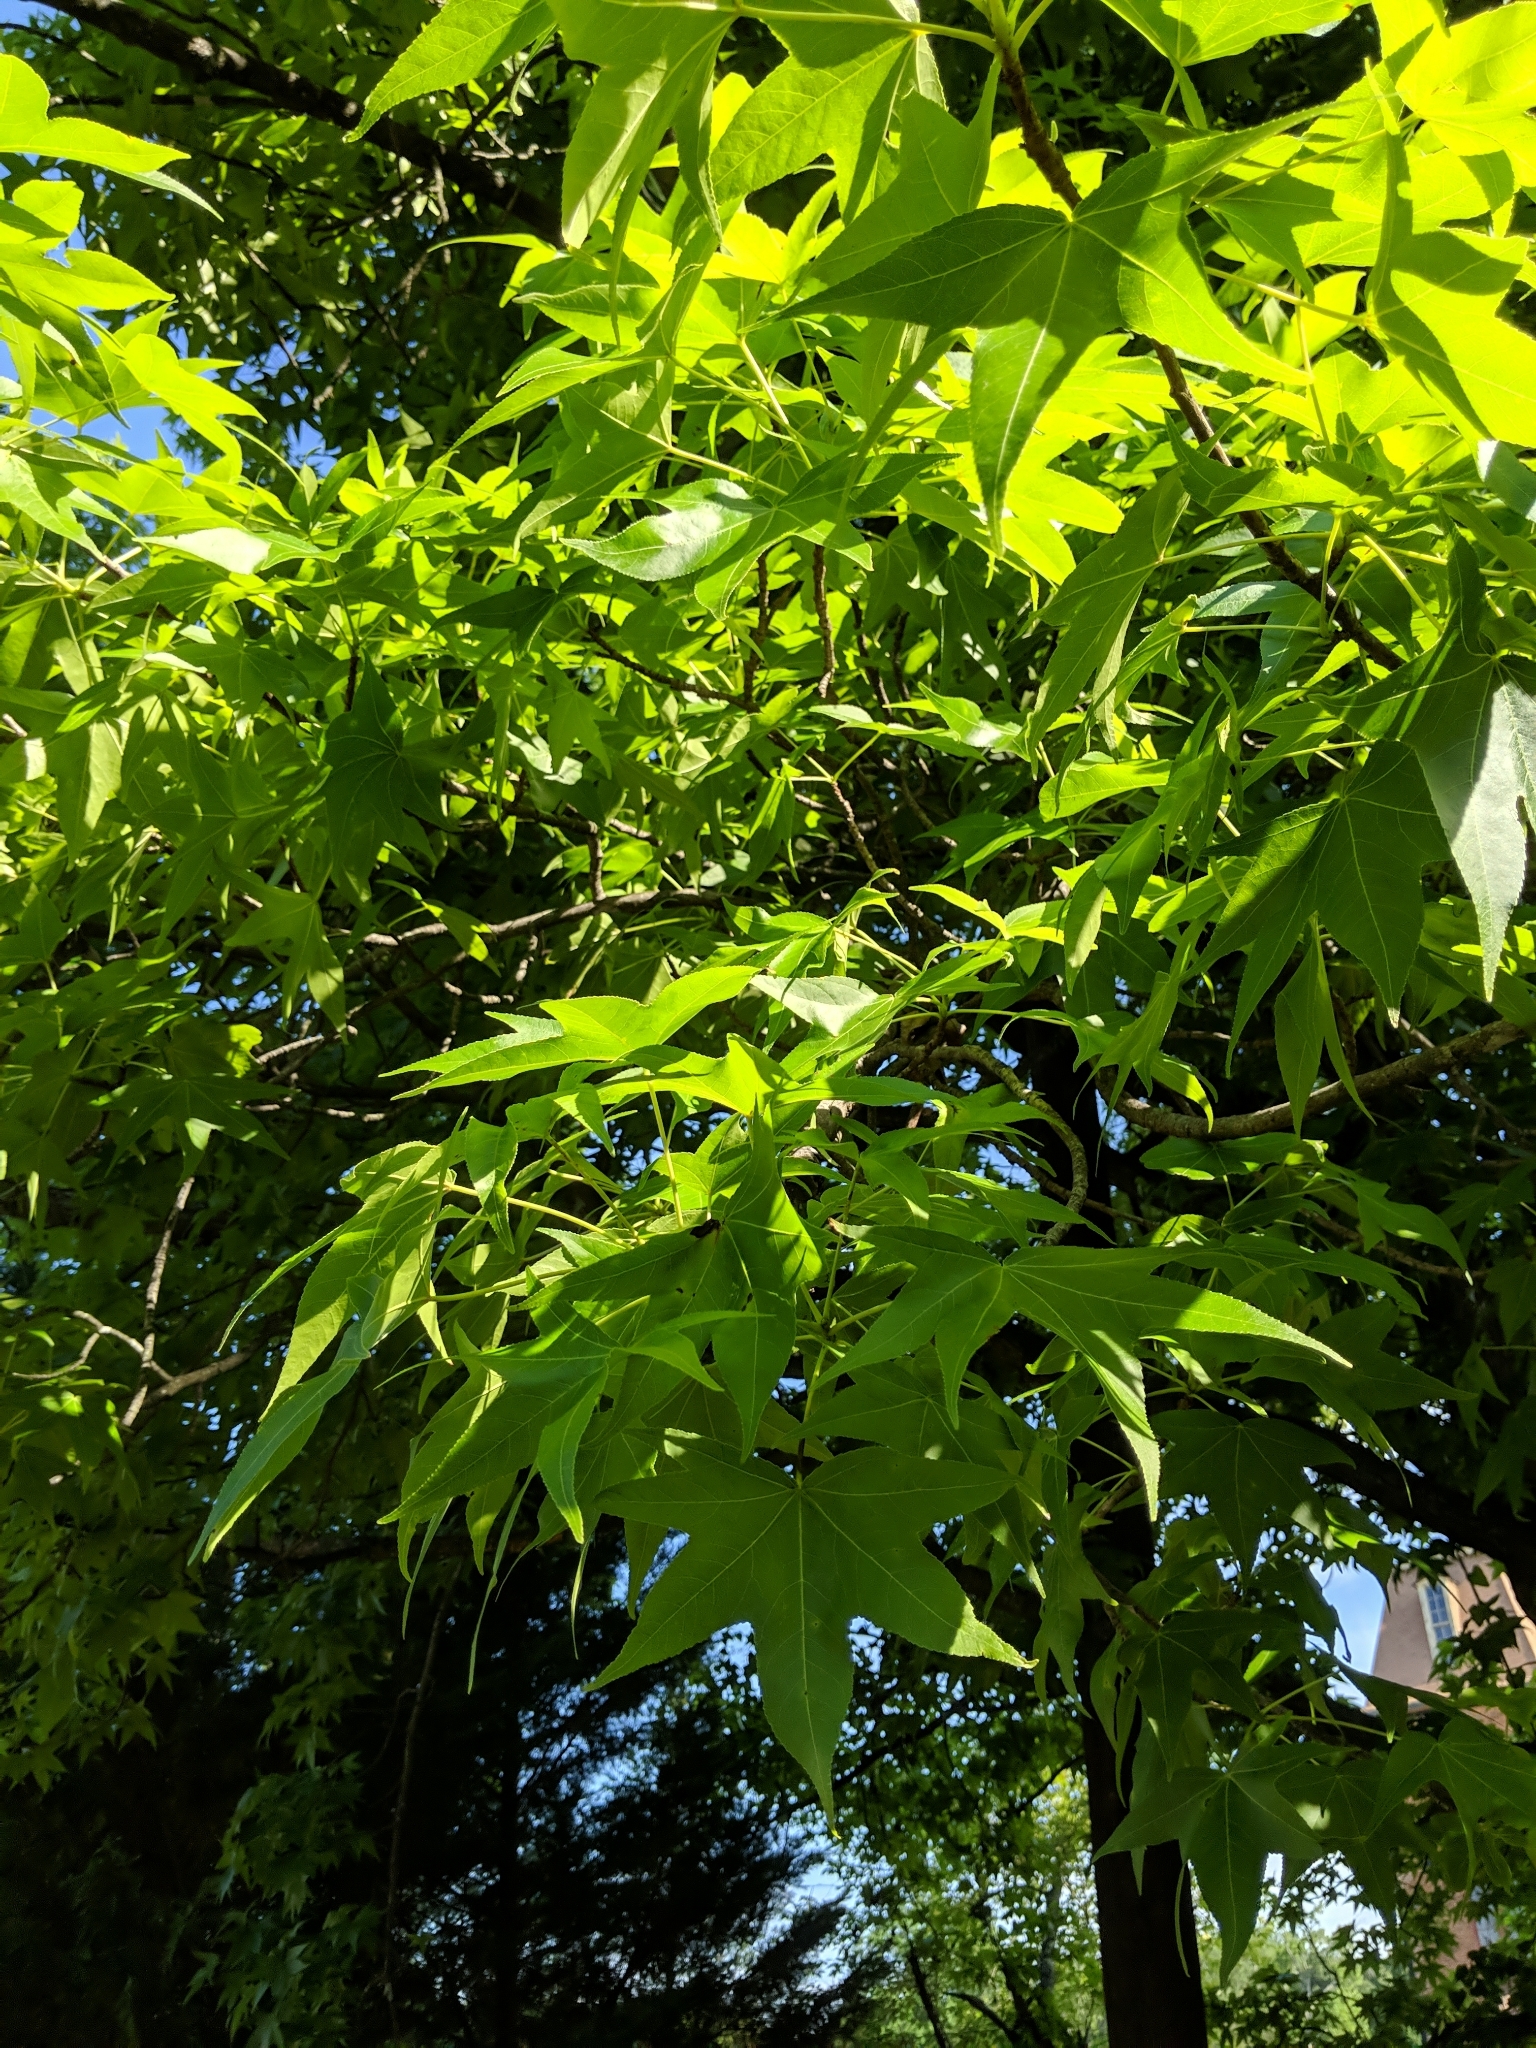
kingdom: Plantae
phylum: Tracheophyta
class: Magnoliopsida
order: Saxifragales
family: Altingiaceae
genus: Liquidambar
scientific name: Liquidambar styraciflua
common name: Sweet gum
